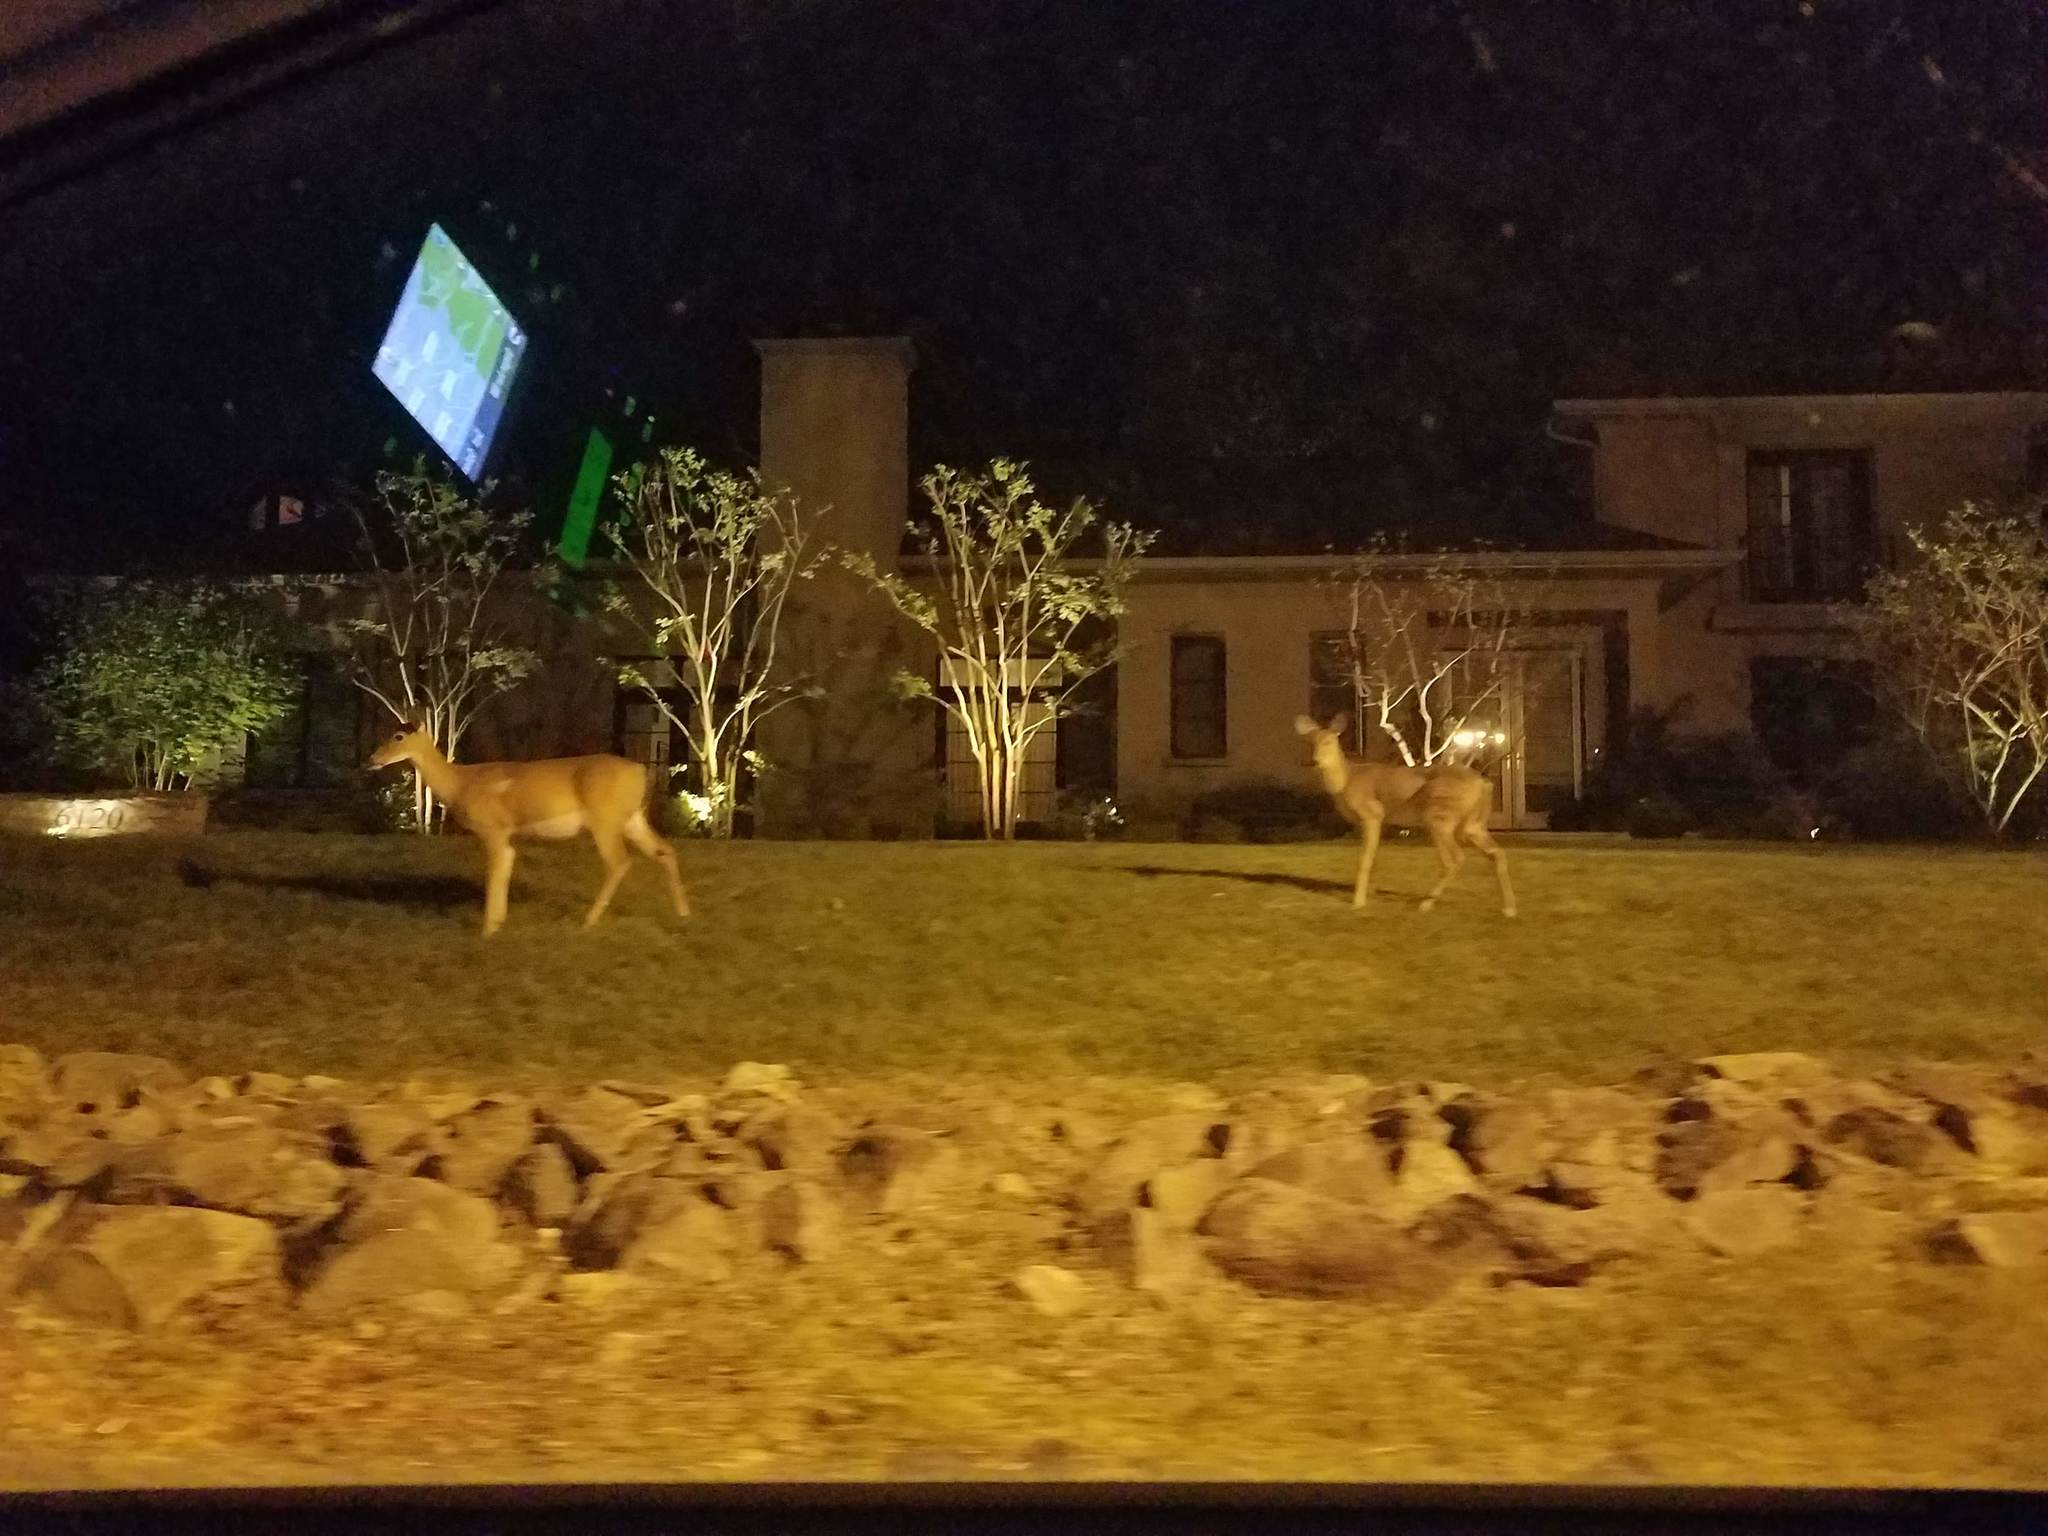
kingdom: Animalia
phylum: Chordata
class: Mammalia
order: Artiodactyla
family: Cervidae
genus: Odocoileus
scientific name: Odocoileus virginianus
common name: White-tailed deer
